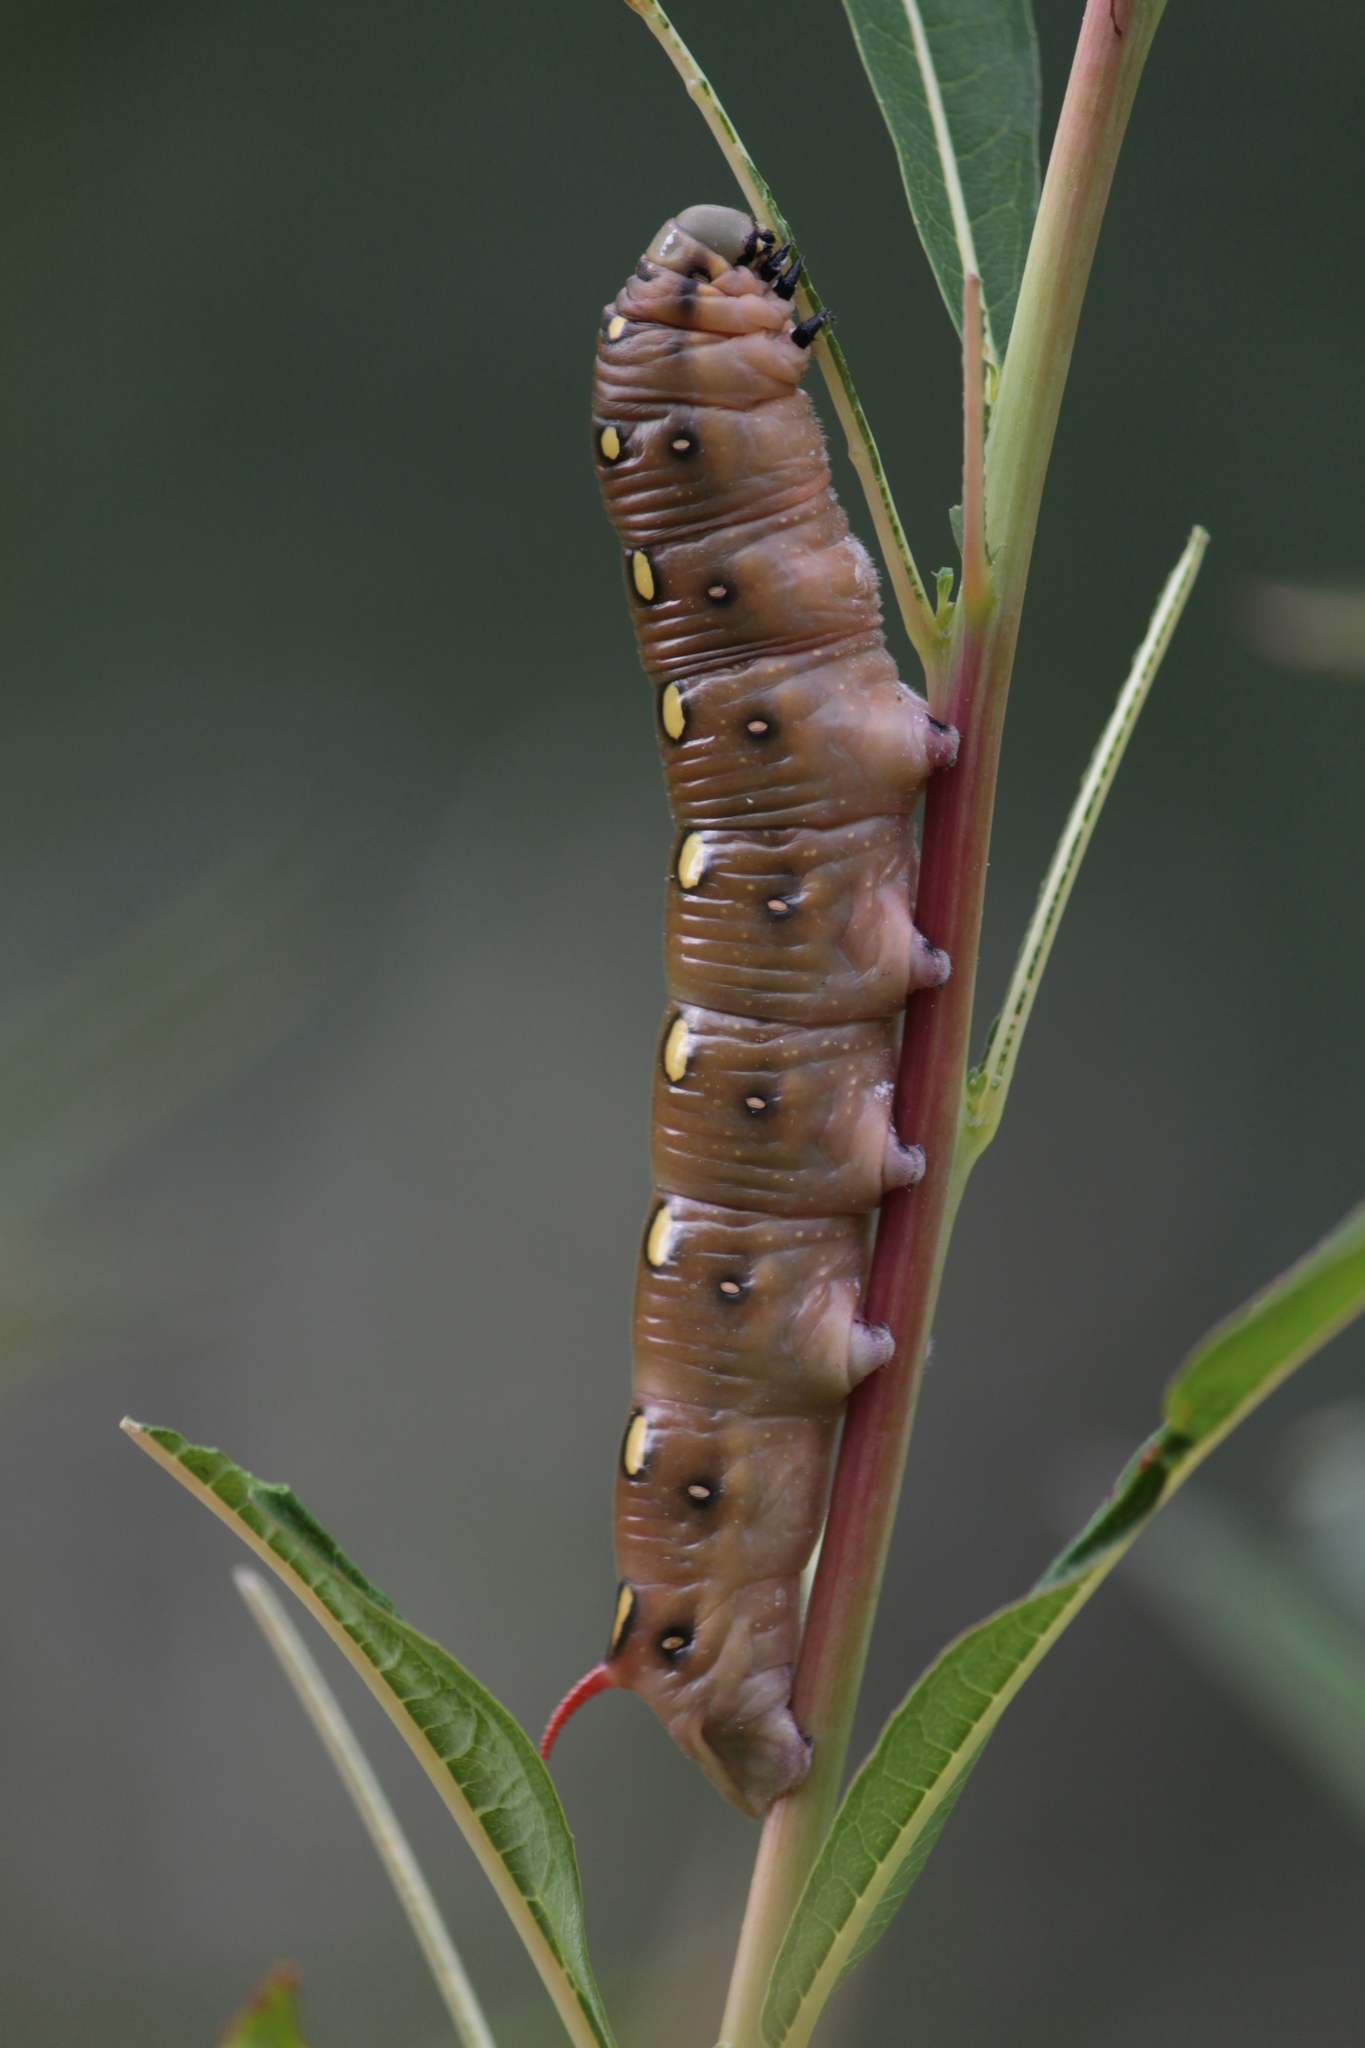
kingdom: Animalia
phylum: Arthropoda
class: Insecta
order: Lepidoptera
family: Sphingidae
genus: Hyles
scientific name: Hyles gallii
